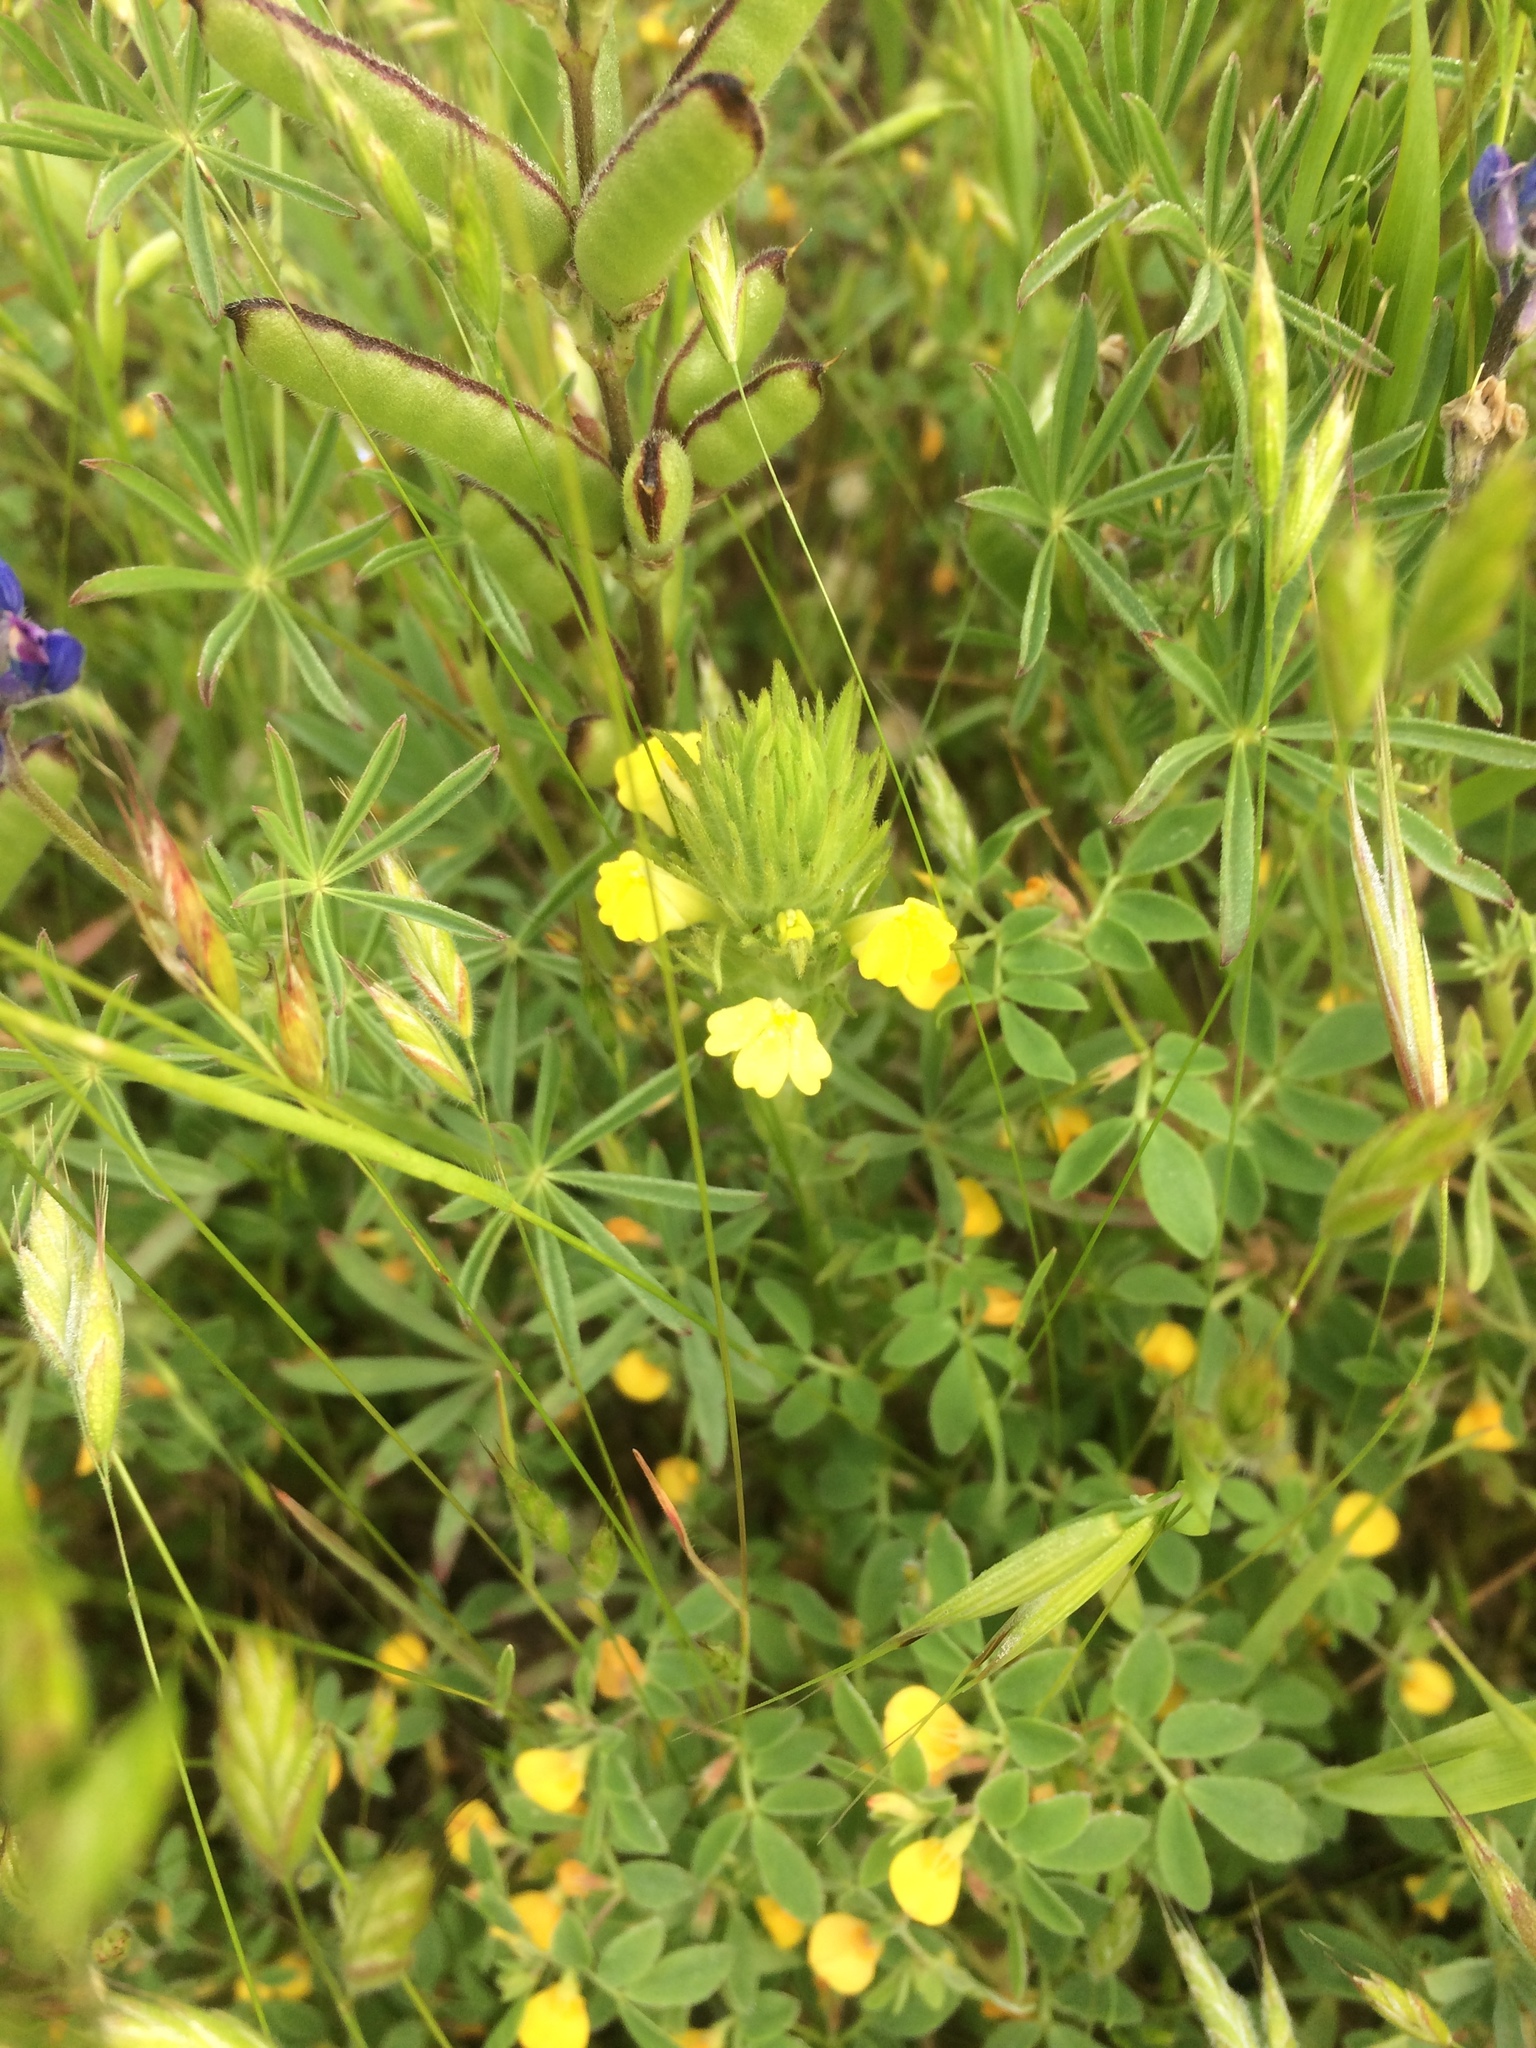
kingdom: Plantae
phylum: Tracheophyta
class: Magnoliopsida
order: Lamiales
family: Orobanchaceae
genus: Castilleja
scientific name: Castilleja rubicundula
